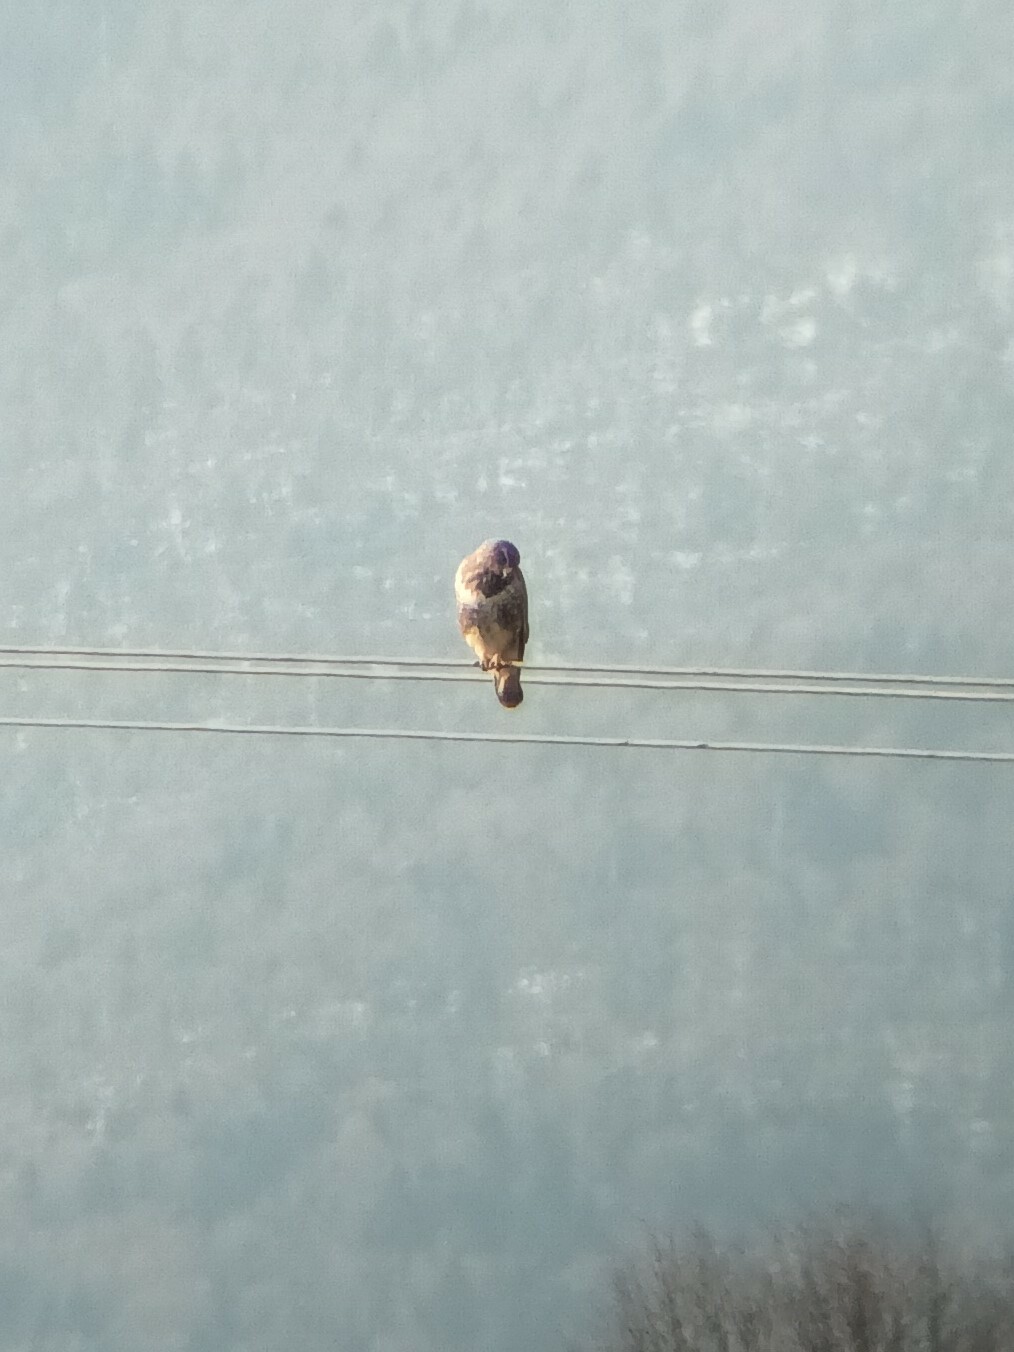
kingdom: Animalia
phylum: Chordata
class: Aves
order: Accipitriformes
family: Accipitridae
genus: Buteo
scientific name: Buteo buteo
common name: Common buzzard
